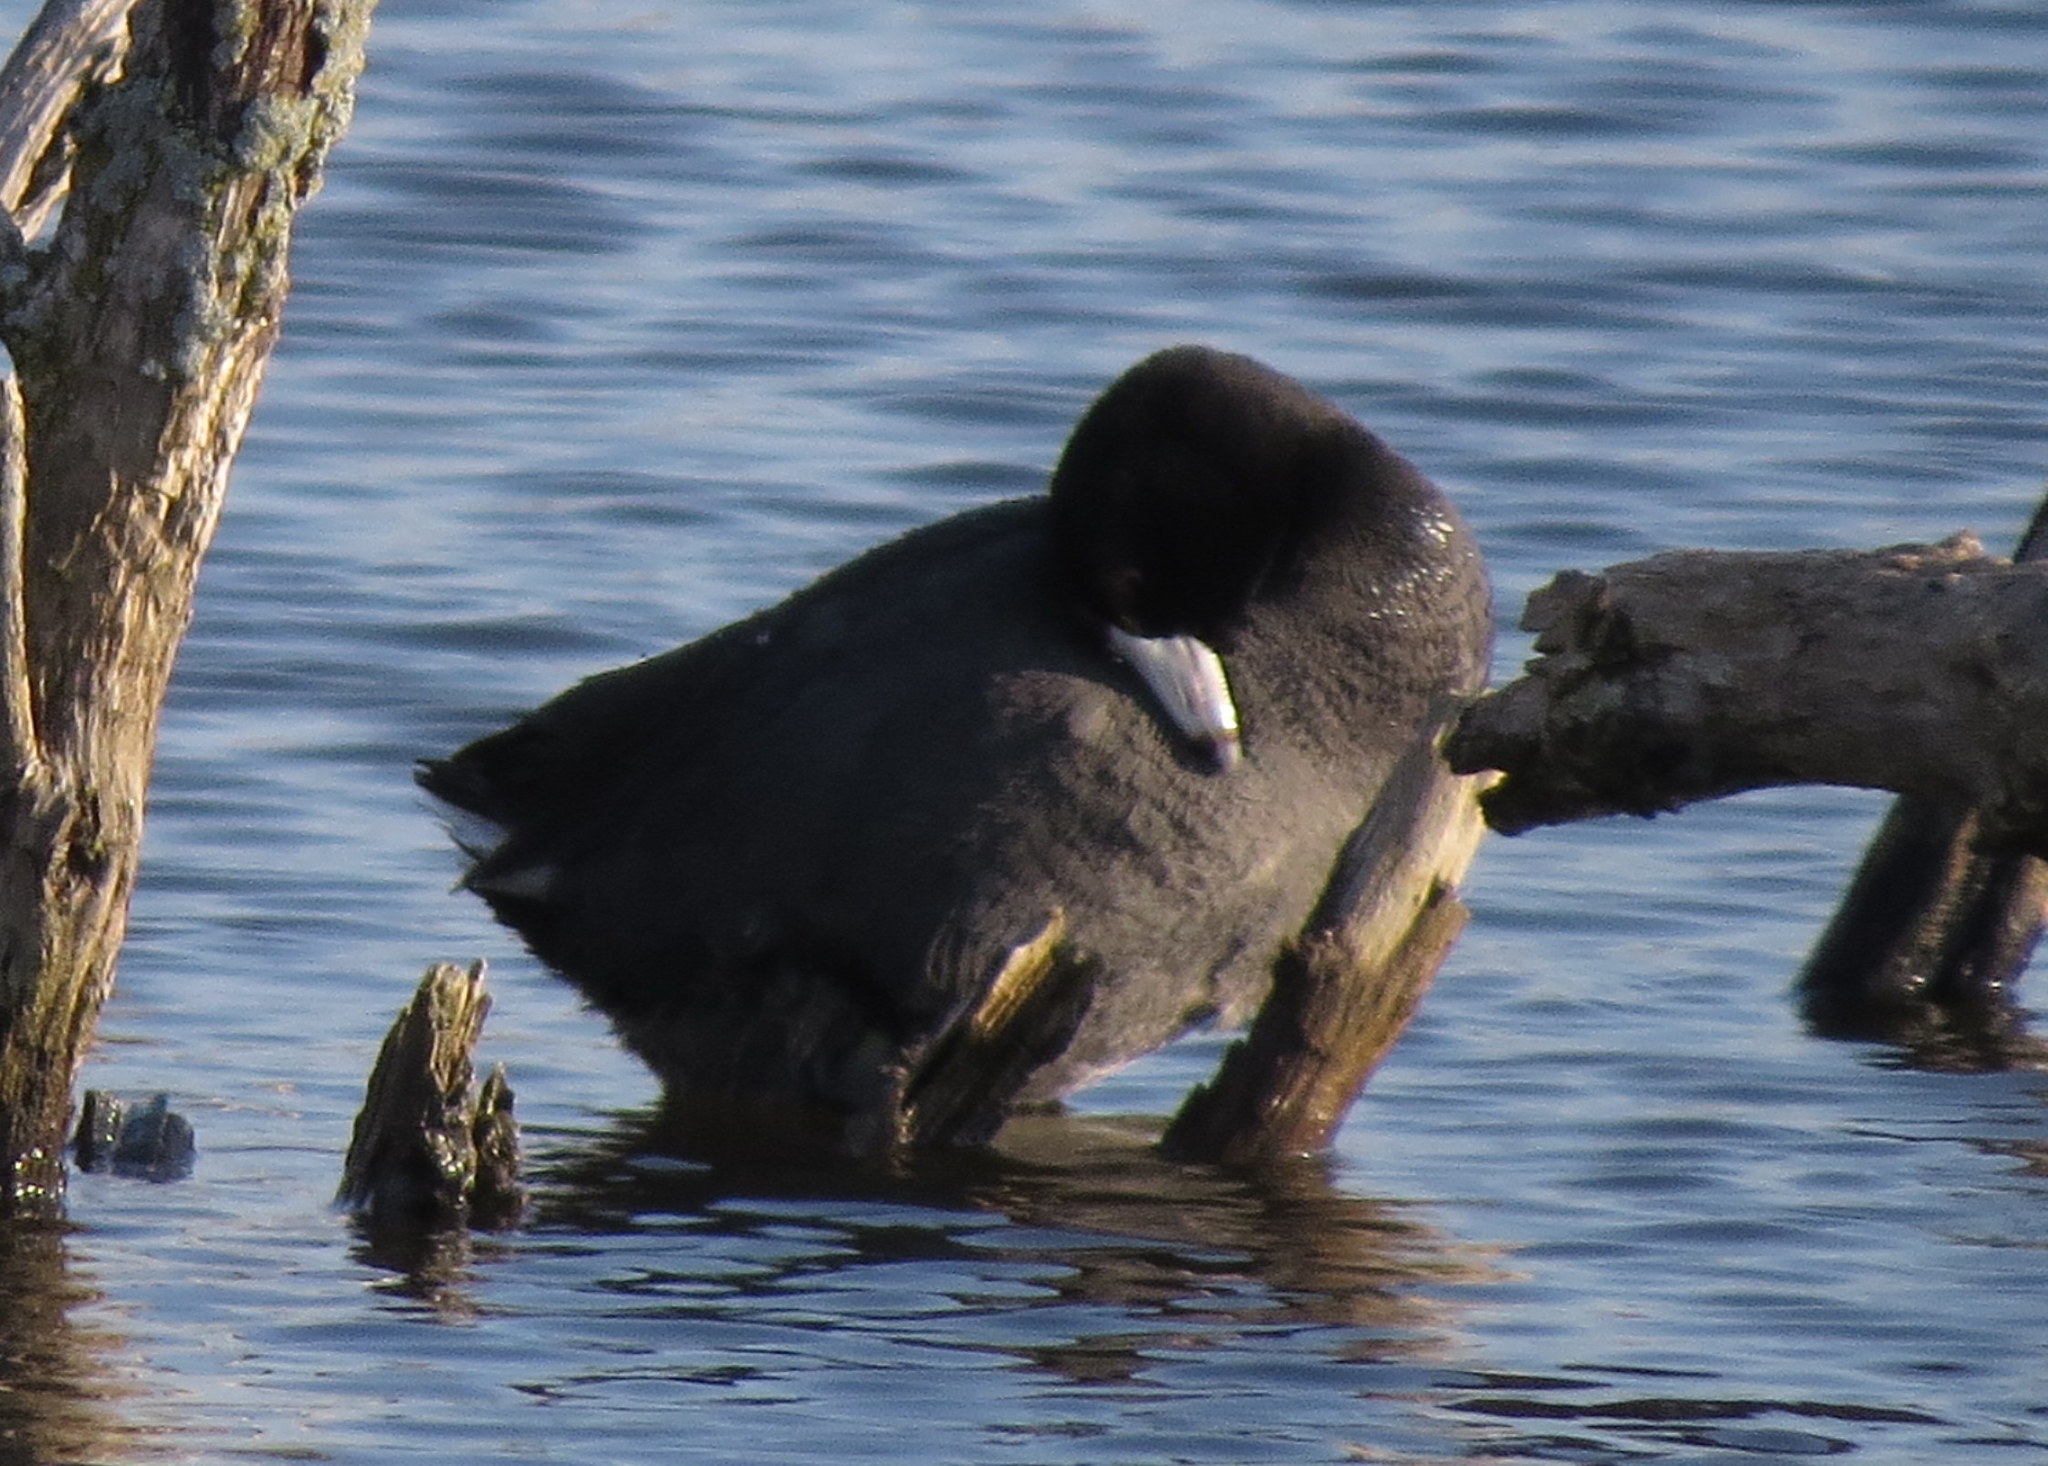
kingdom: Animalia
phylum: Chordata
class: Aves
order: Gruiformes
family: Rallidae
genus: Fulica
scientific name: Fulica americana
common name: American coot
